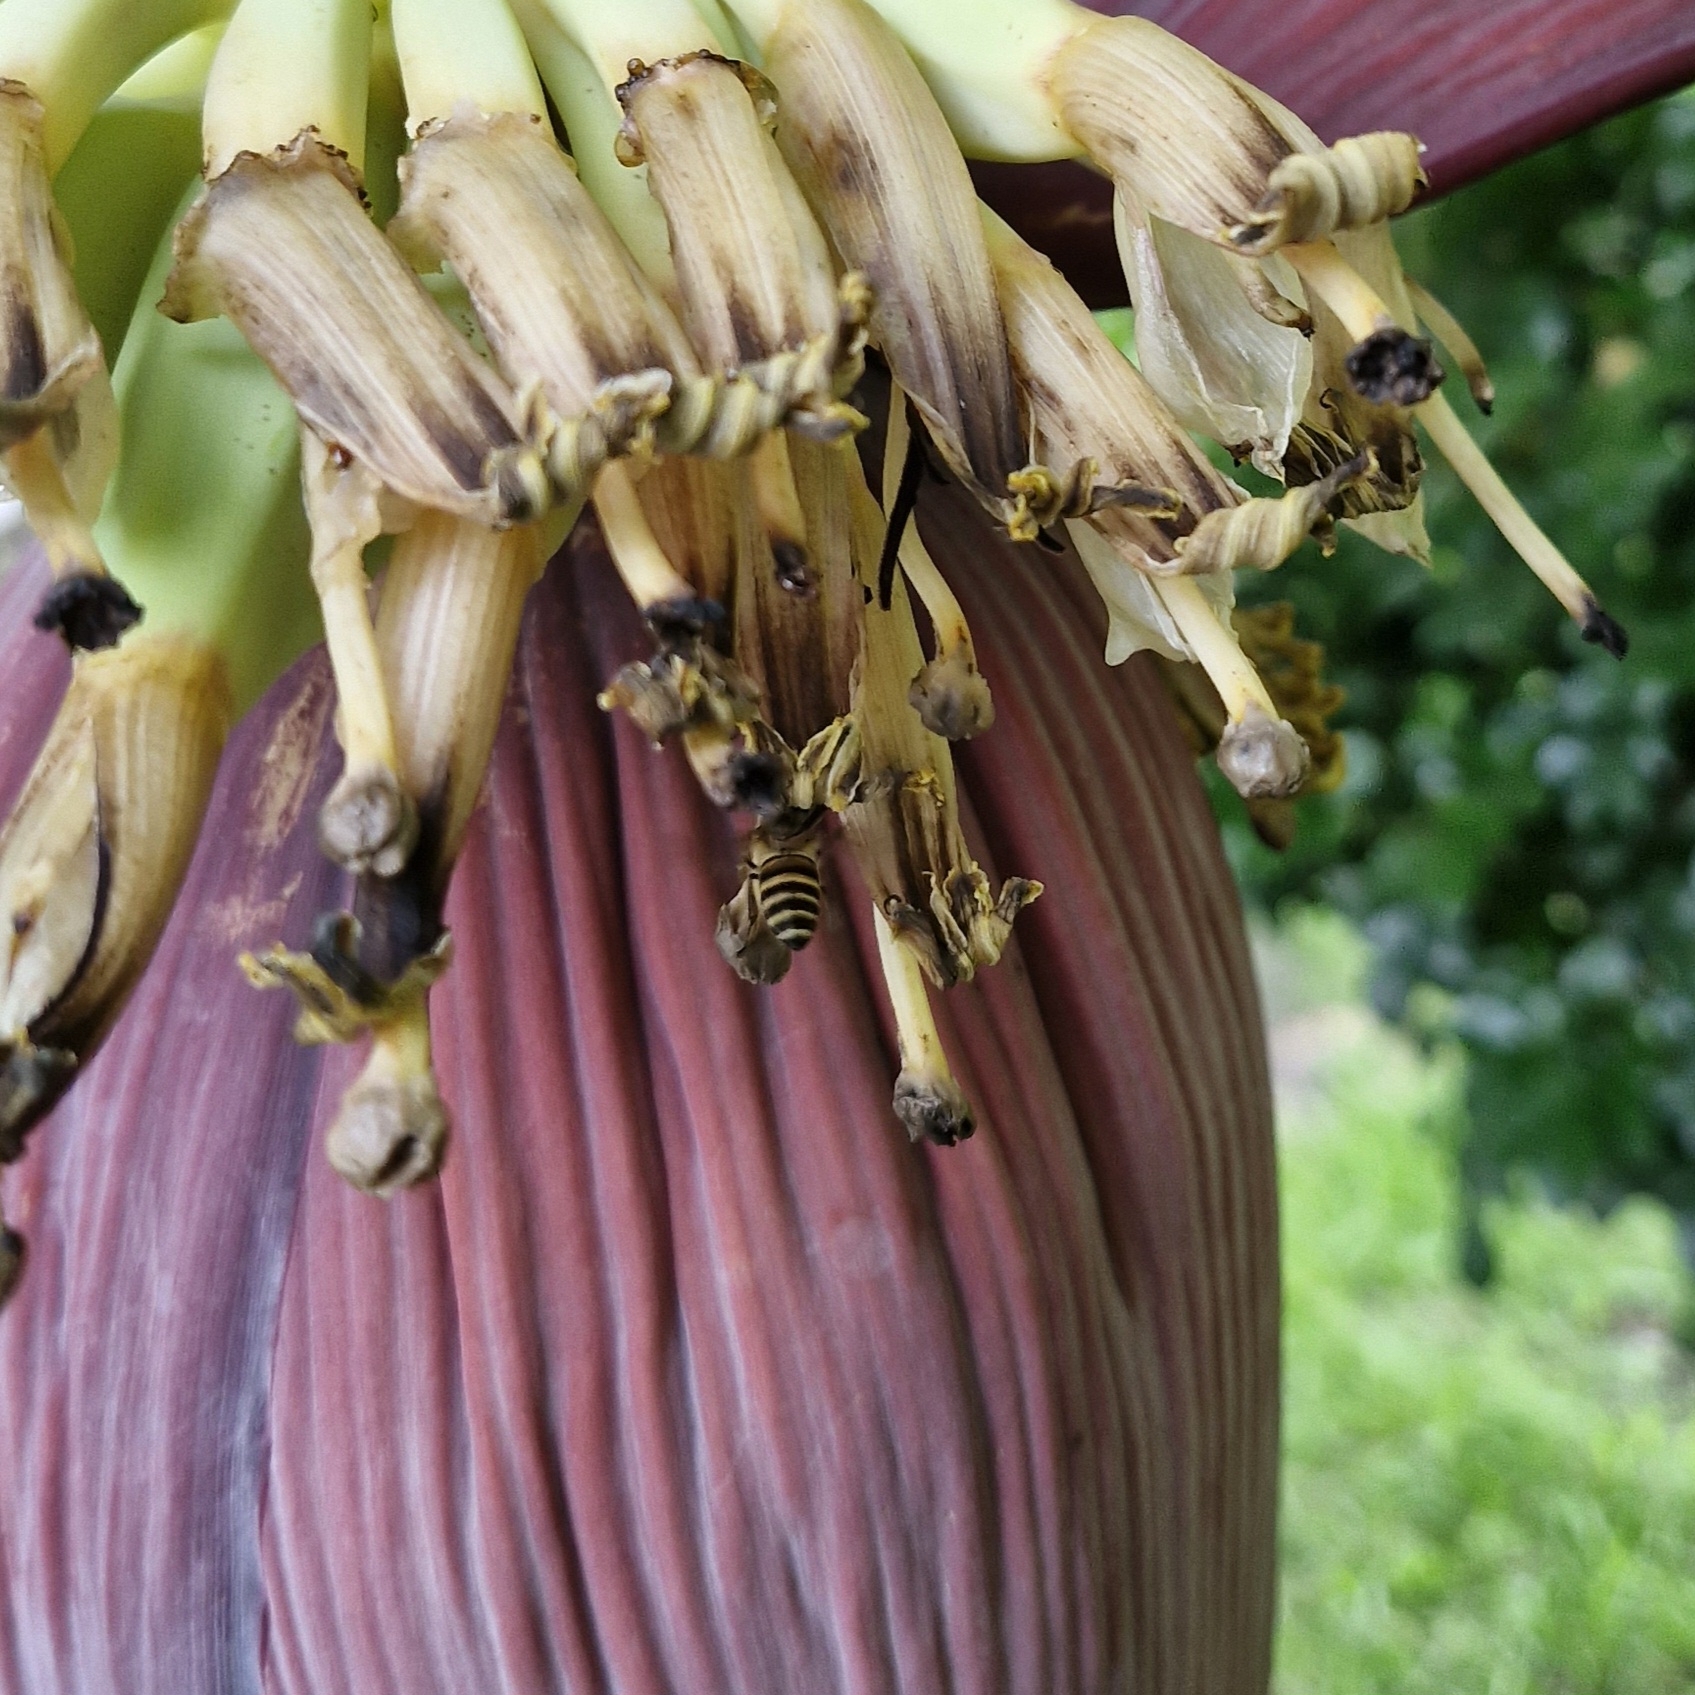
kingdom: Animalia
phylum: Arthropoda
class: Insecta
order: Hymenoptera
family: Apidae
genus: Apis
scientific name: Apis cerana
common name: Honey bee
